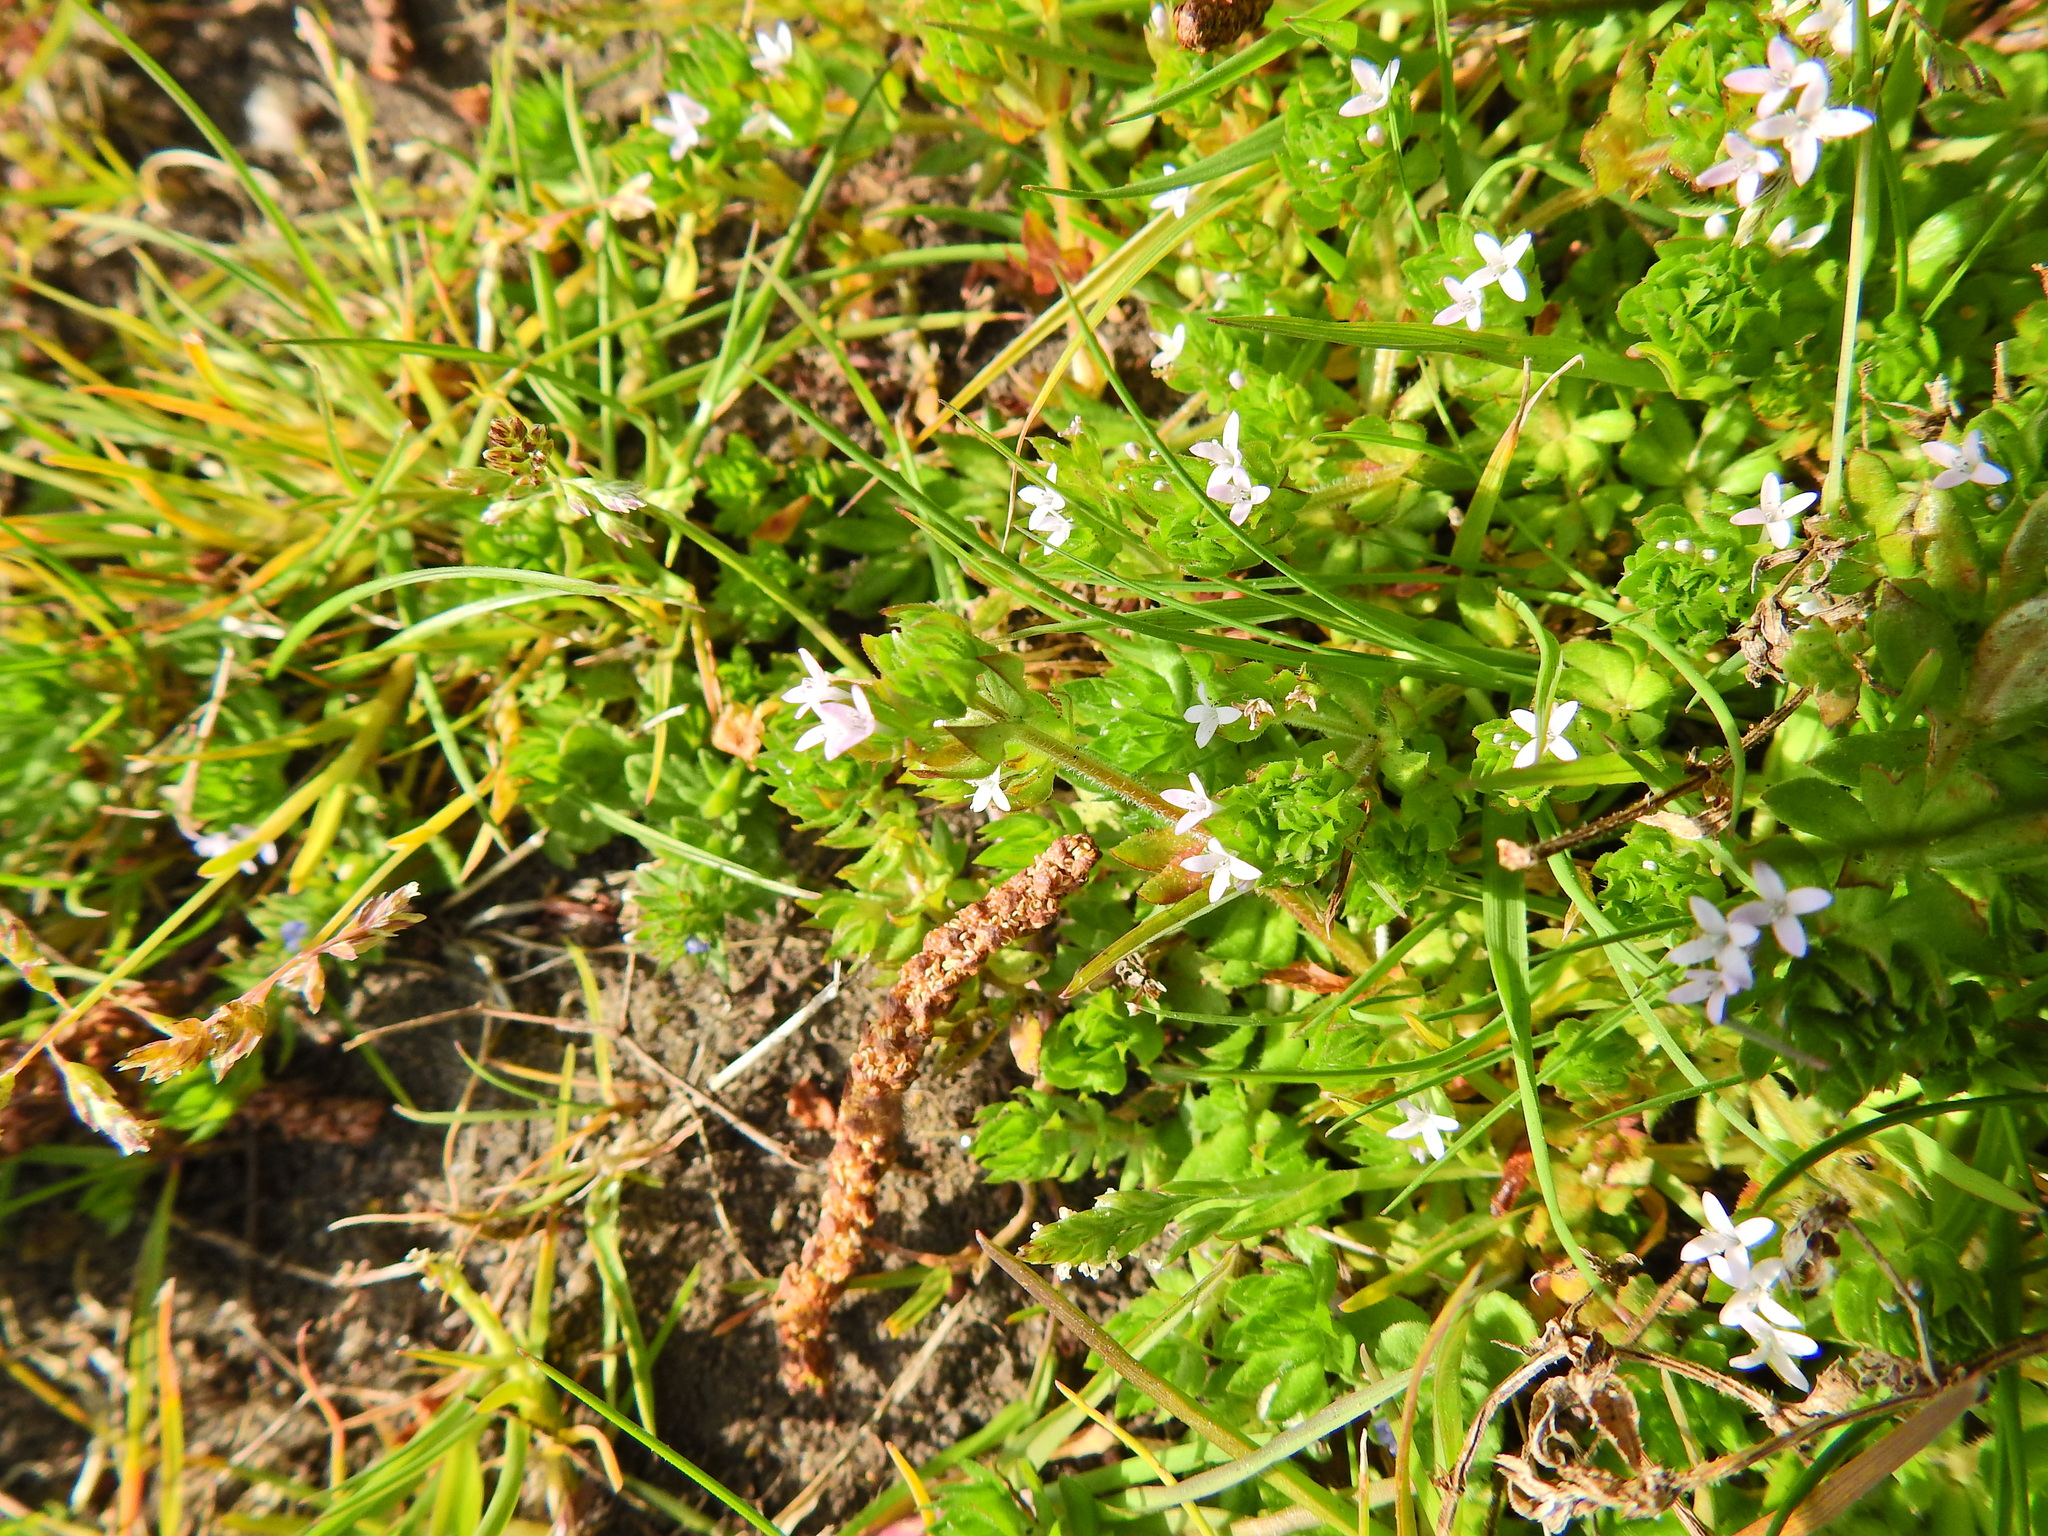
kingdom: Plantae
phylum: Tracheophyta
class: Magnoliopsida
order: Gentianales
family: Rubiaceae
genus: Sherardia
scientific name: Sherardia arvensis
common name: Field madder
